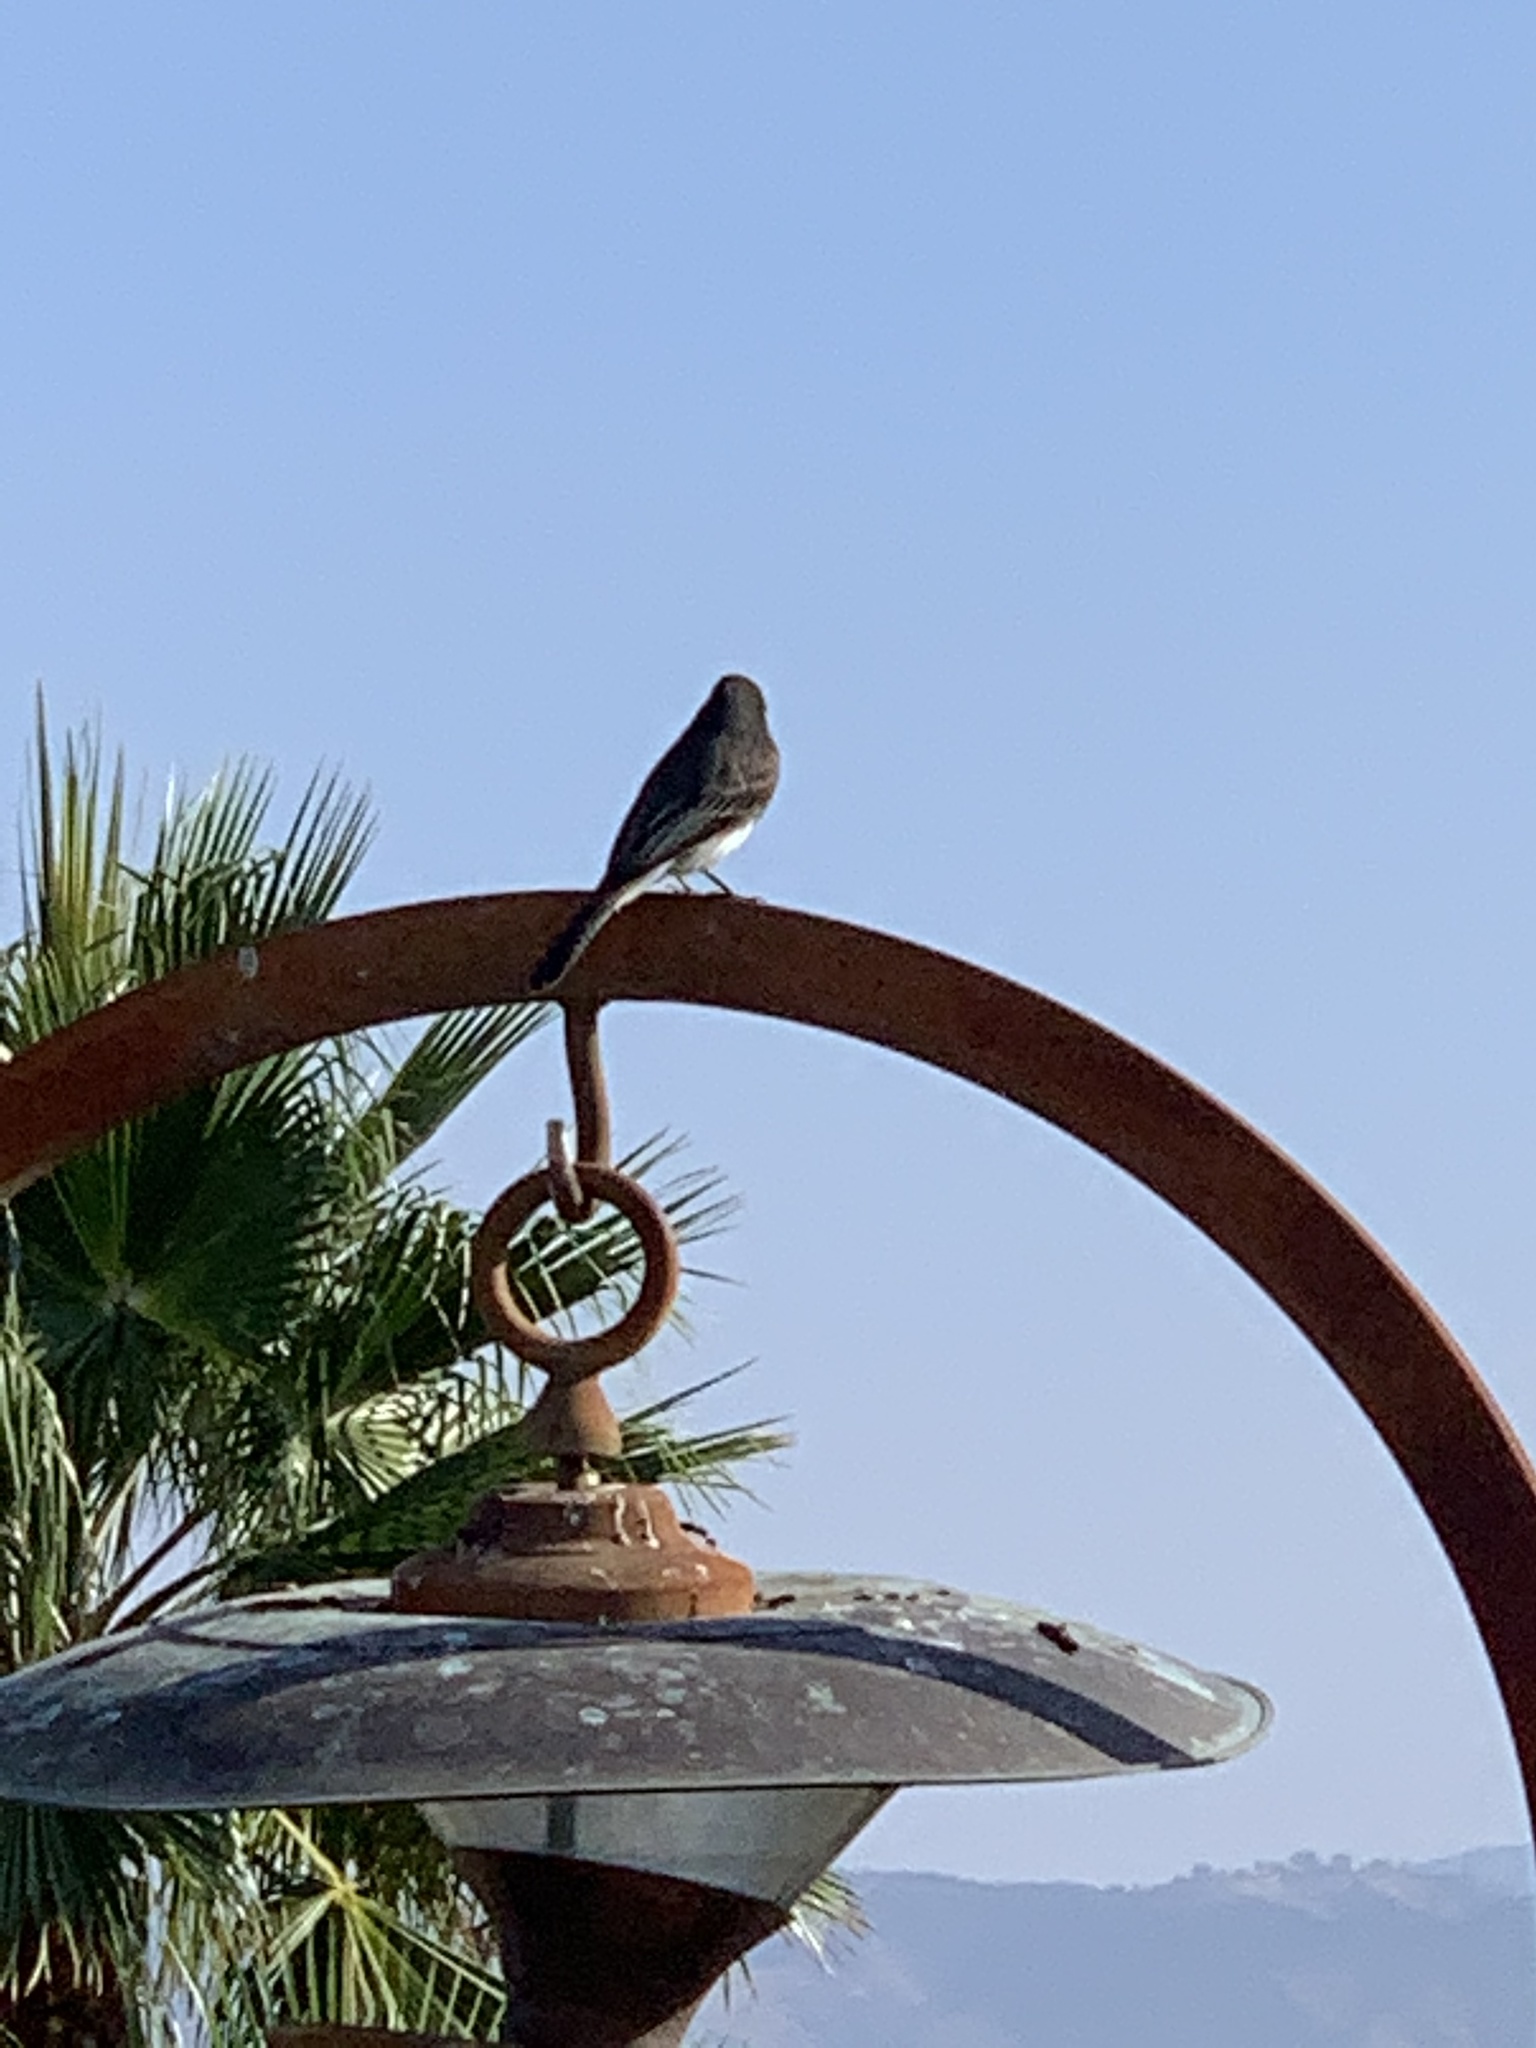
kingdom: Animalia
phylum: Chordata
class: Aves
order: Passeriformes
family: Tyrannidae
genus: Sayornis
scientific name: Sayornis nigricans
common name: Black phoebe
